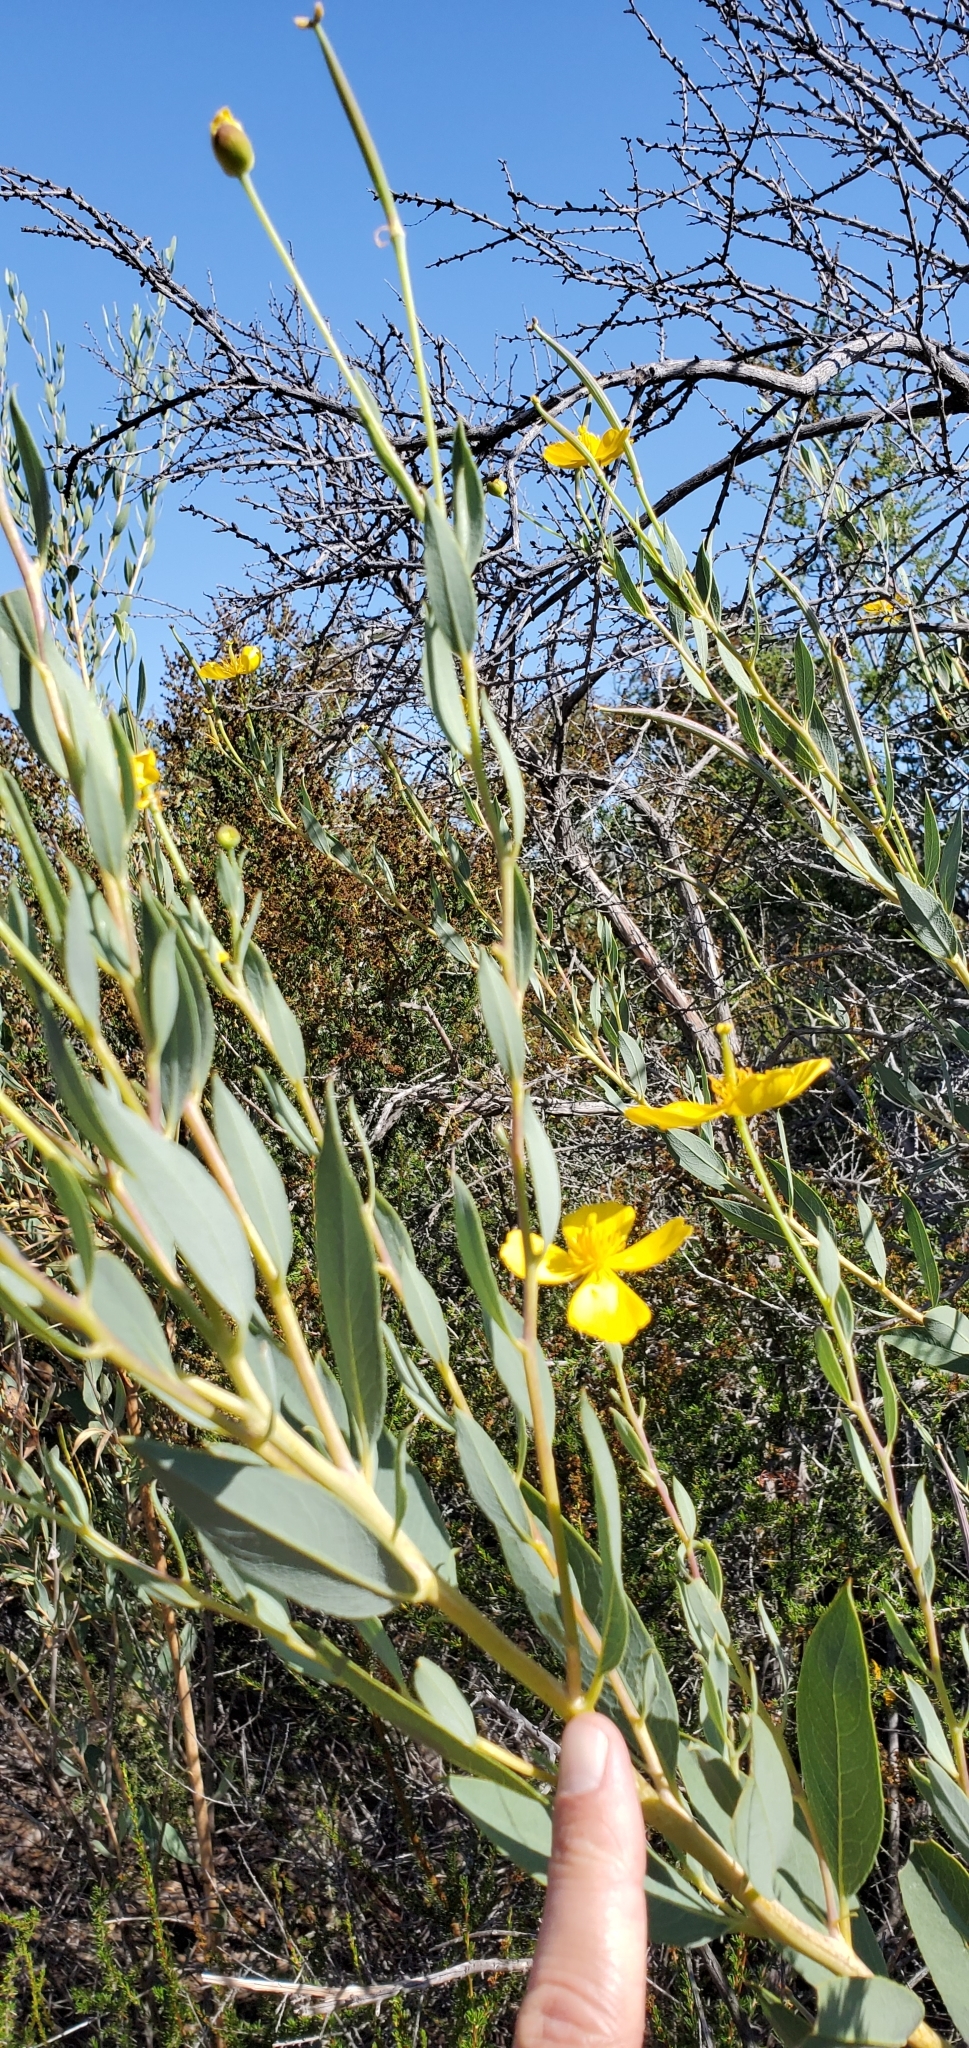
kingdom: Plantae
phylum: Tracheophyta
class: Magnoliopsida
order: Ranunculales
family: Papaveraceae
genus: Dendromecon
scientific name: Dendromecon rigida
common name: Tree poppy
